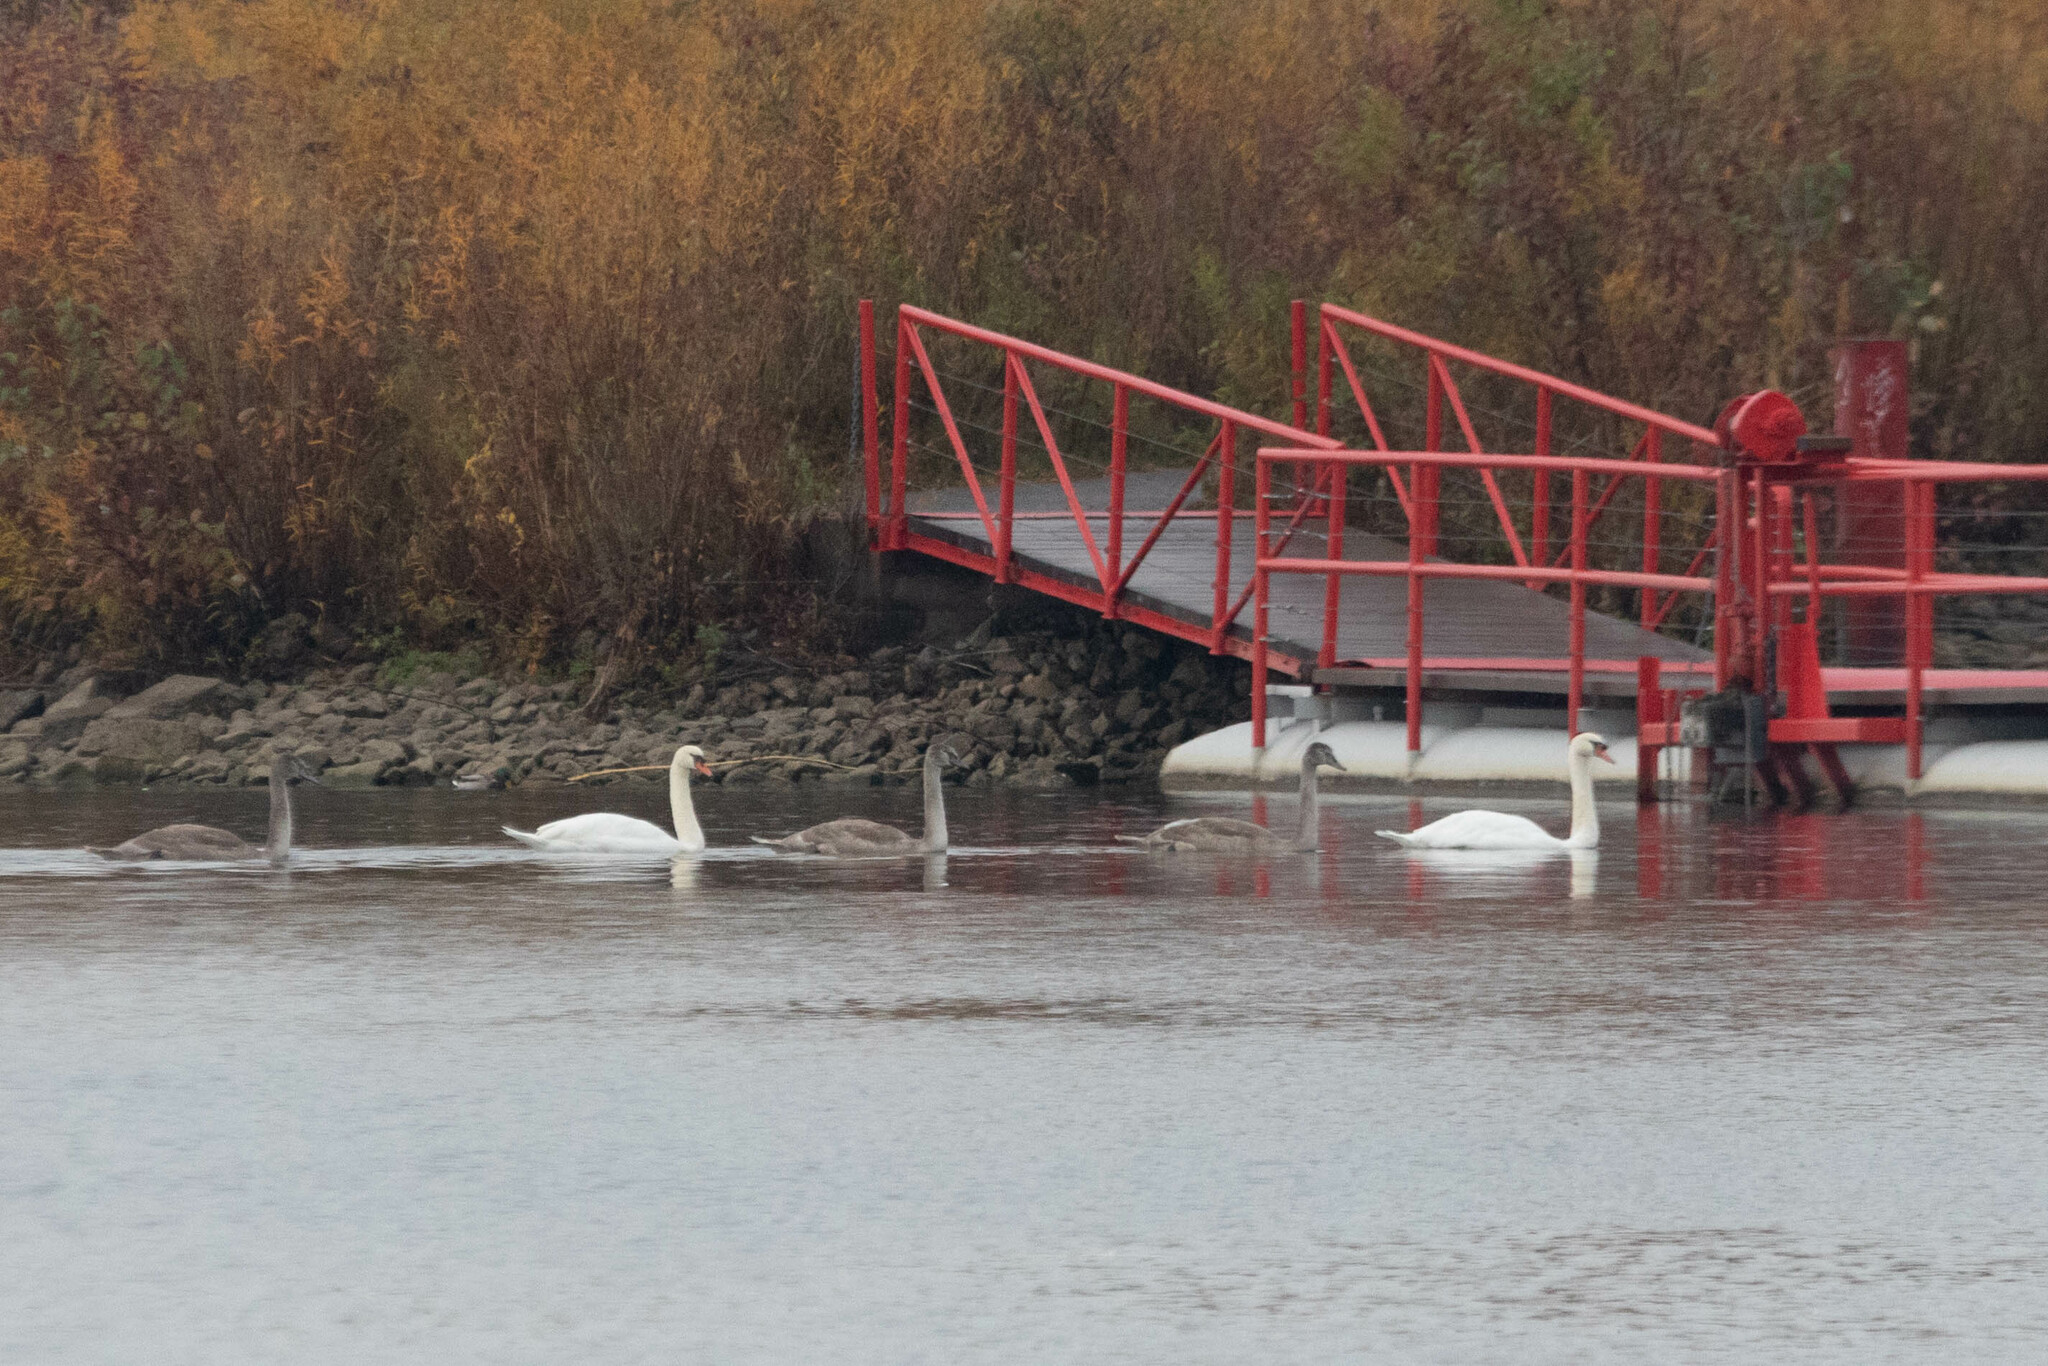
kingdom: Animalia
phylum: Chordata
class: Aves
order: Anseriformes
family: Anatidae
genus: Cygnus
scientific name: Cygnus olor
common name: Mute swan
